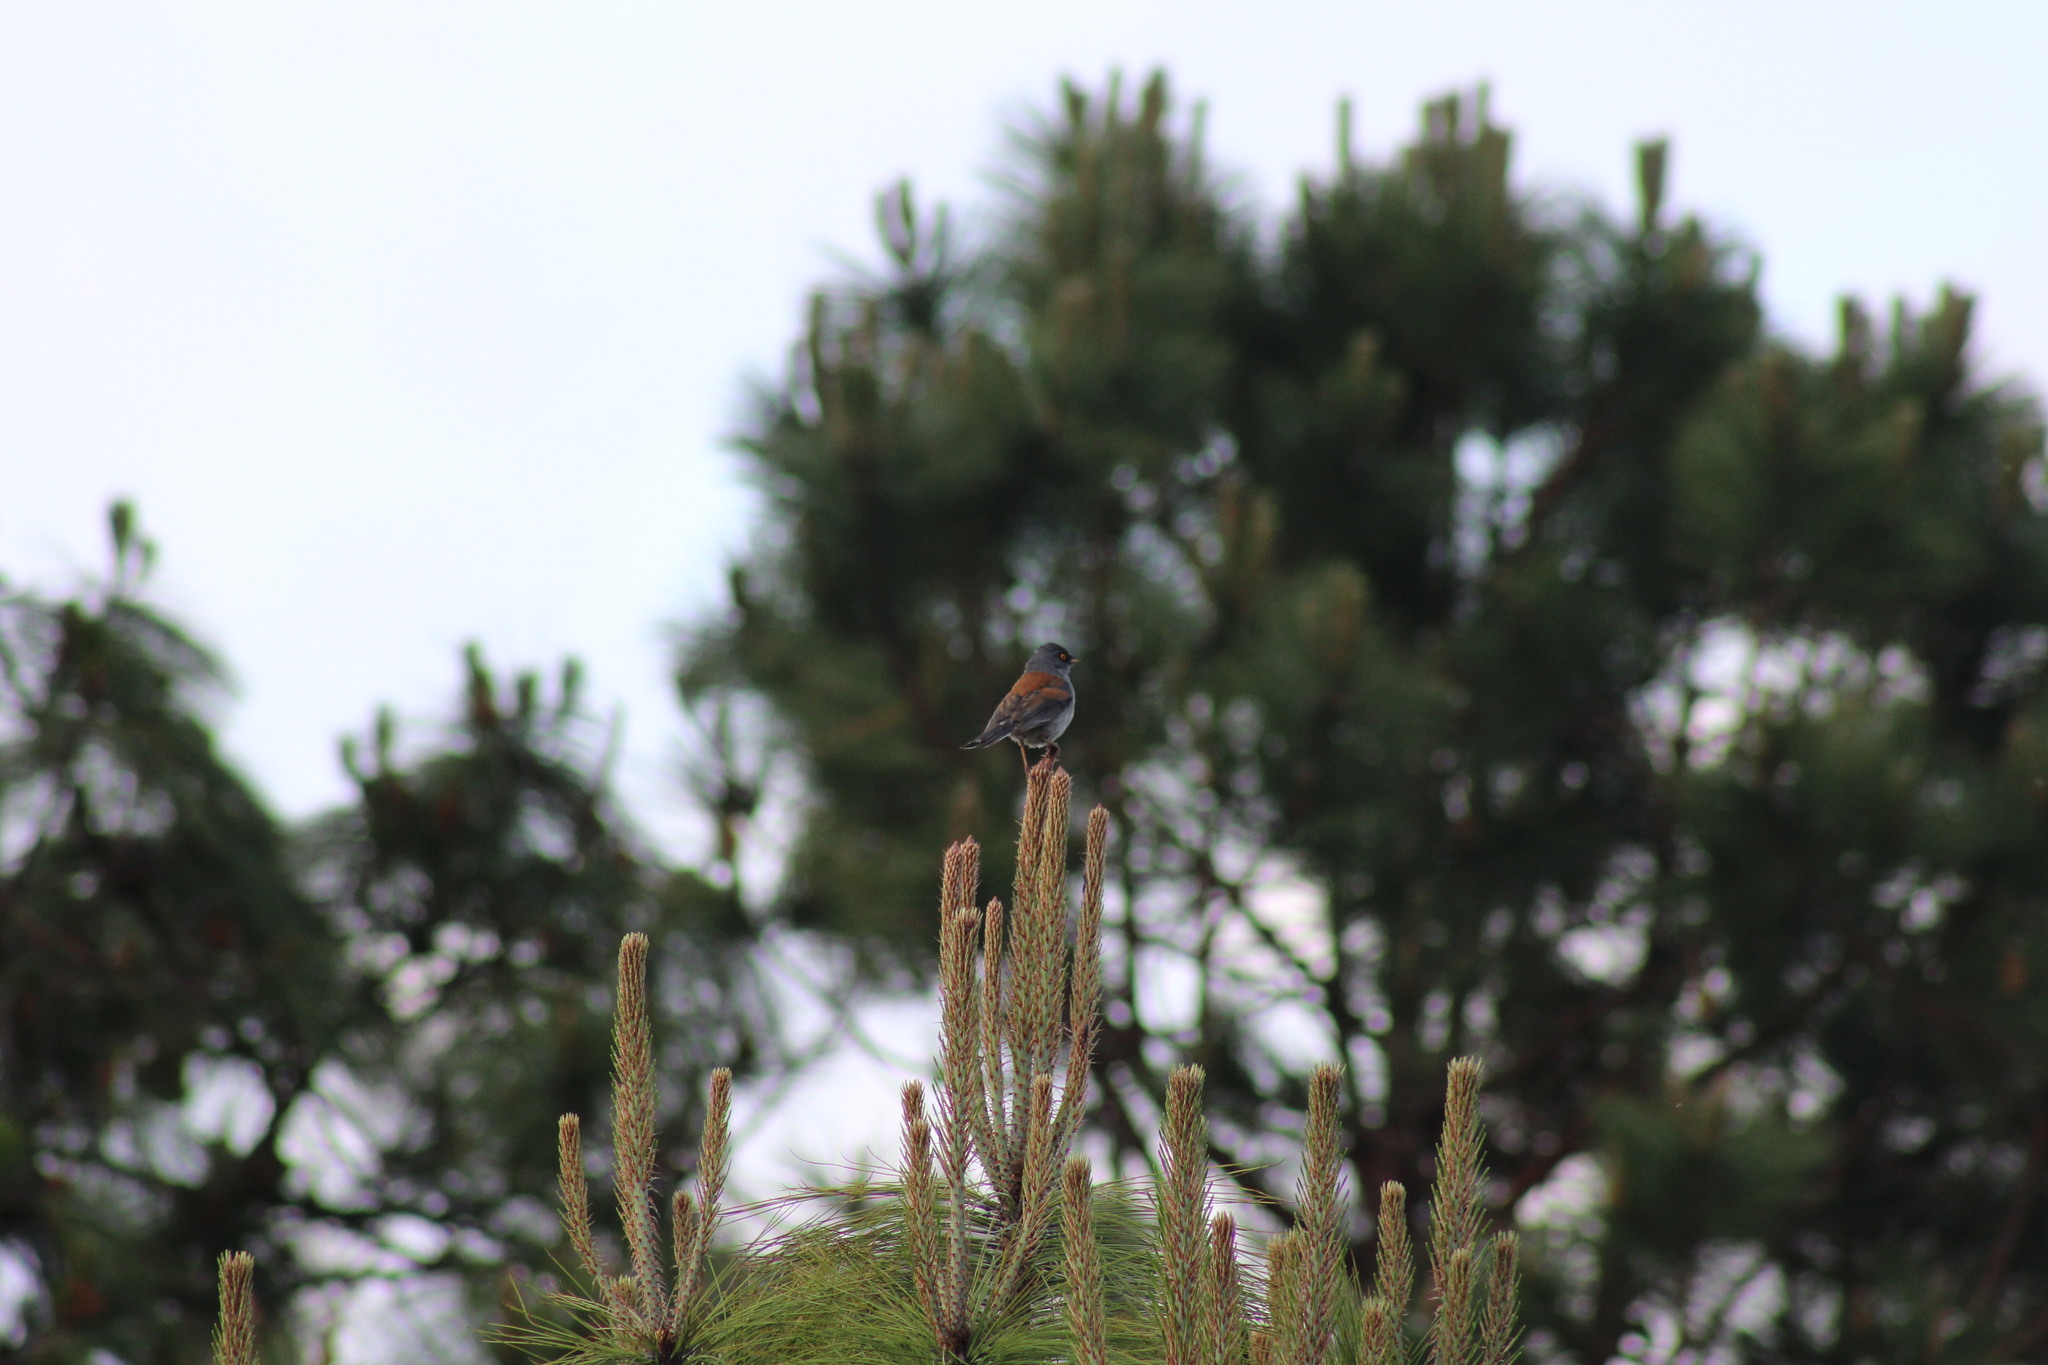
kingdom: Animalia
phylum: Chordata
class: Aves
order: Passeriformes
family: Passerellidae
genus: Junco
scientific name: Junco phaeonotus
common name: Yellow-eyed junco
